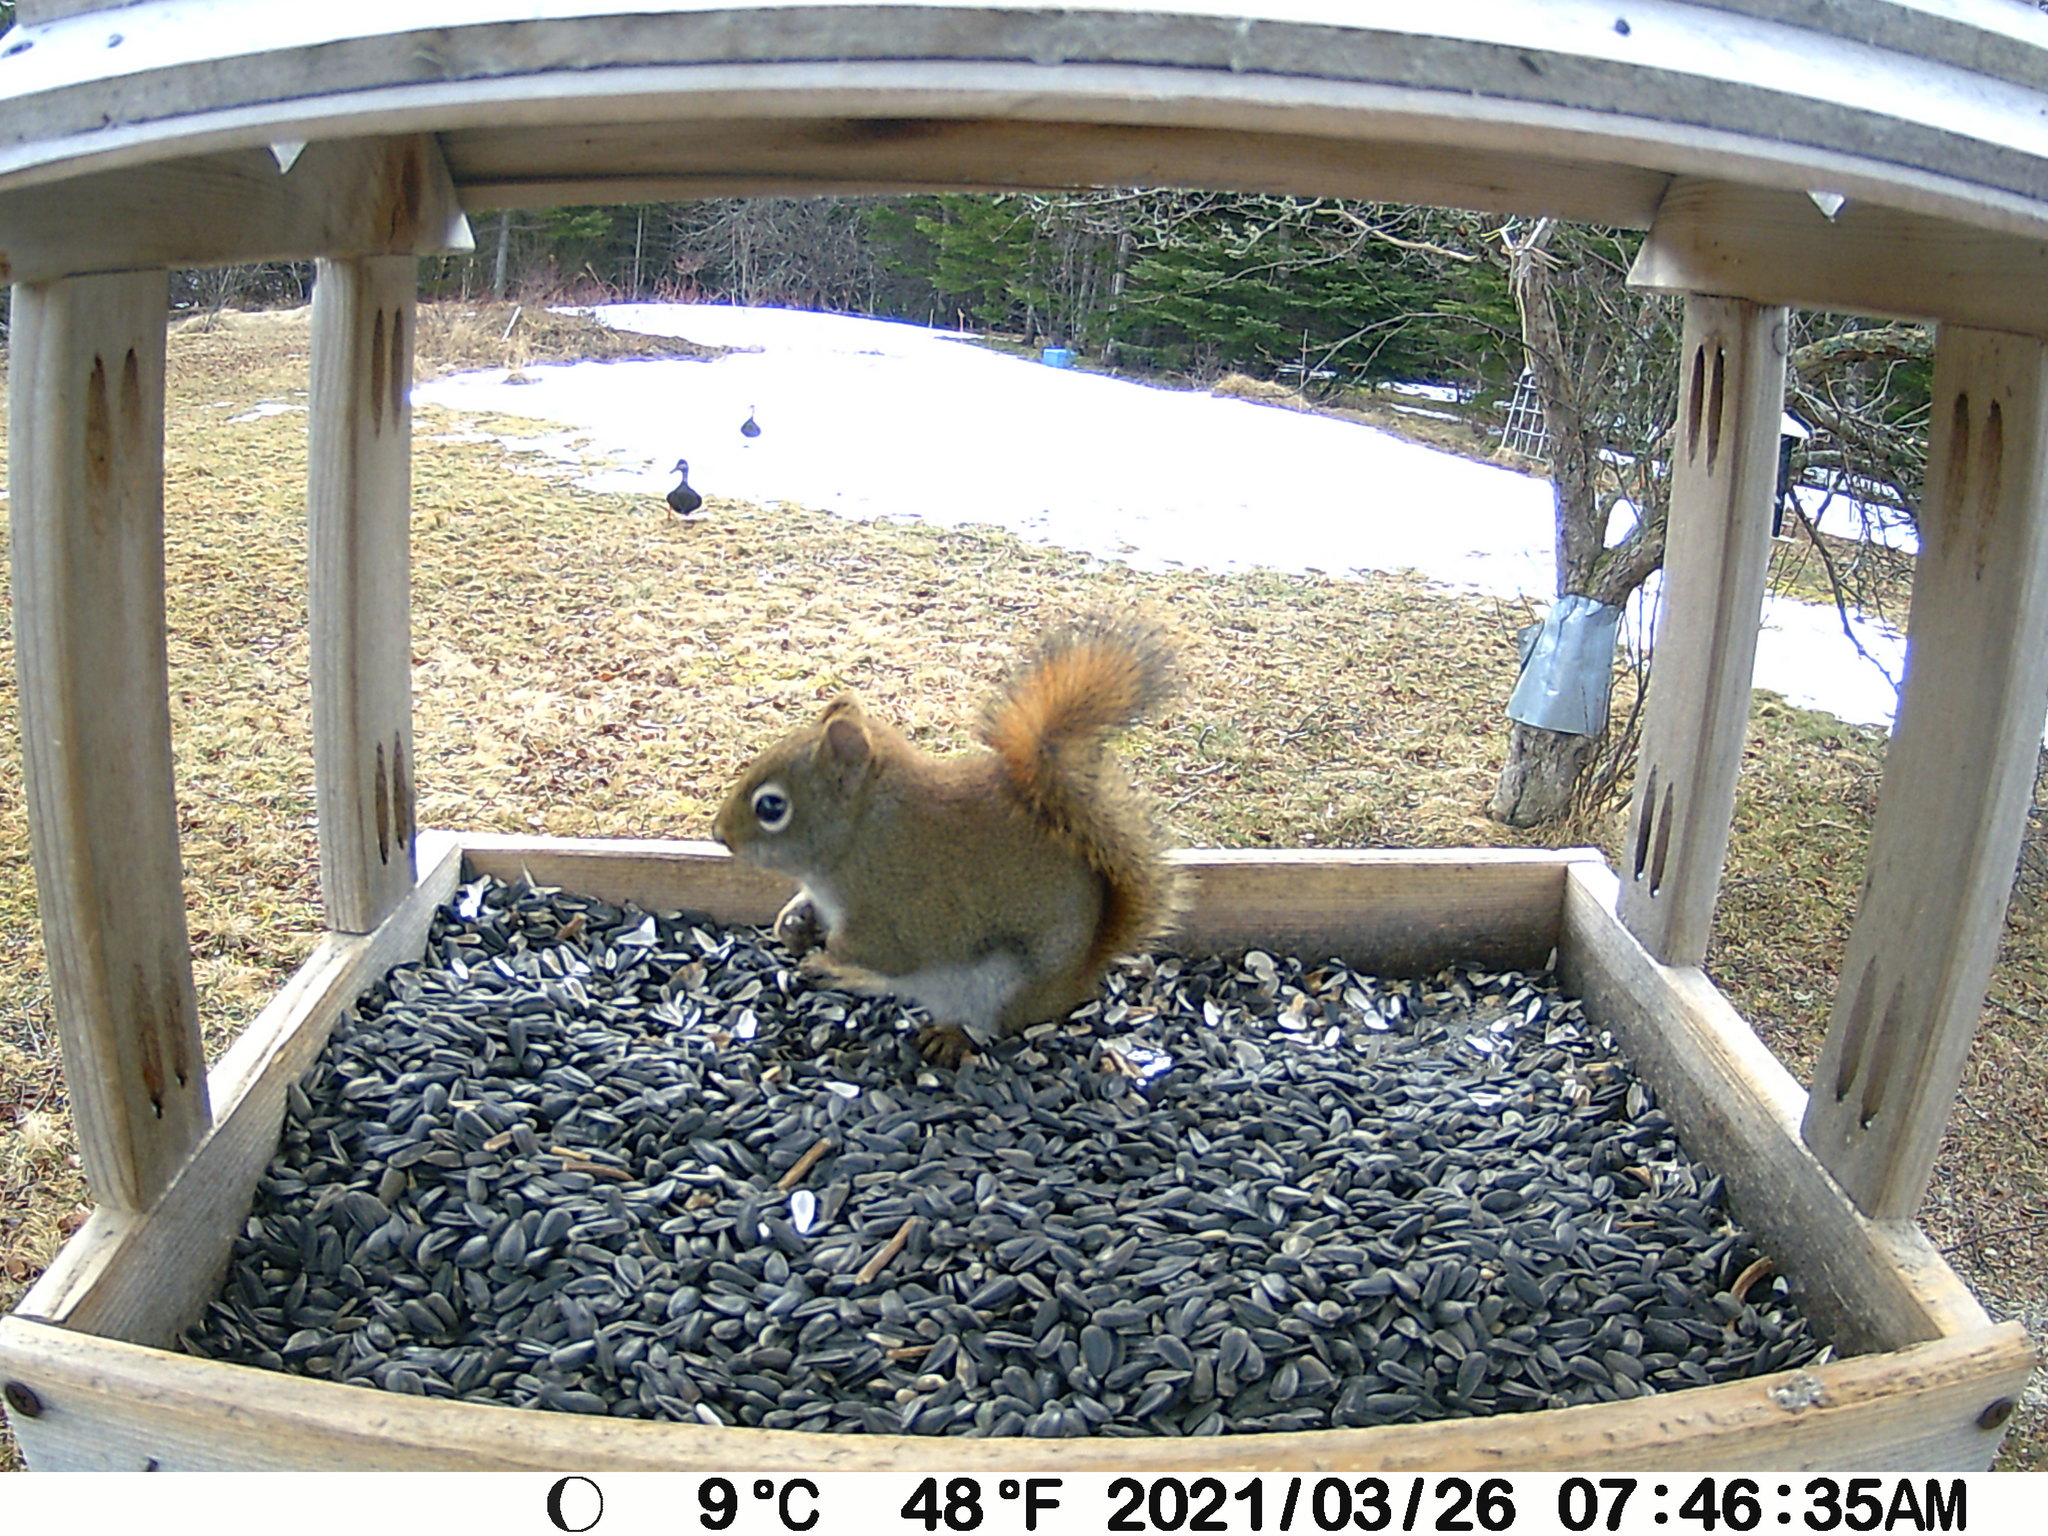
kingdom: Animalia
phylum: Chordata
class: Aves
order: Anseriformes
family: Anatidae
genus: Anas
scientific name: Anas rubripes
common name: American black duck
